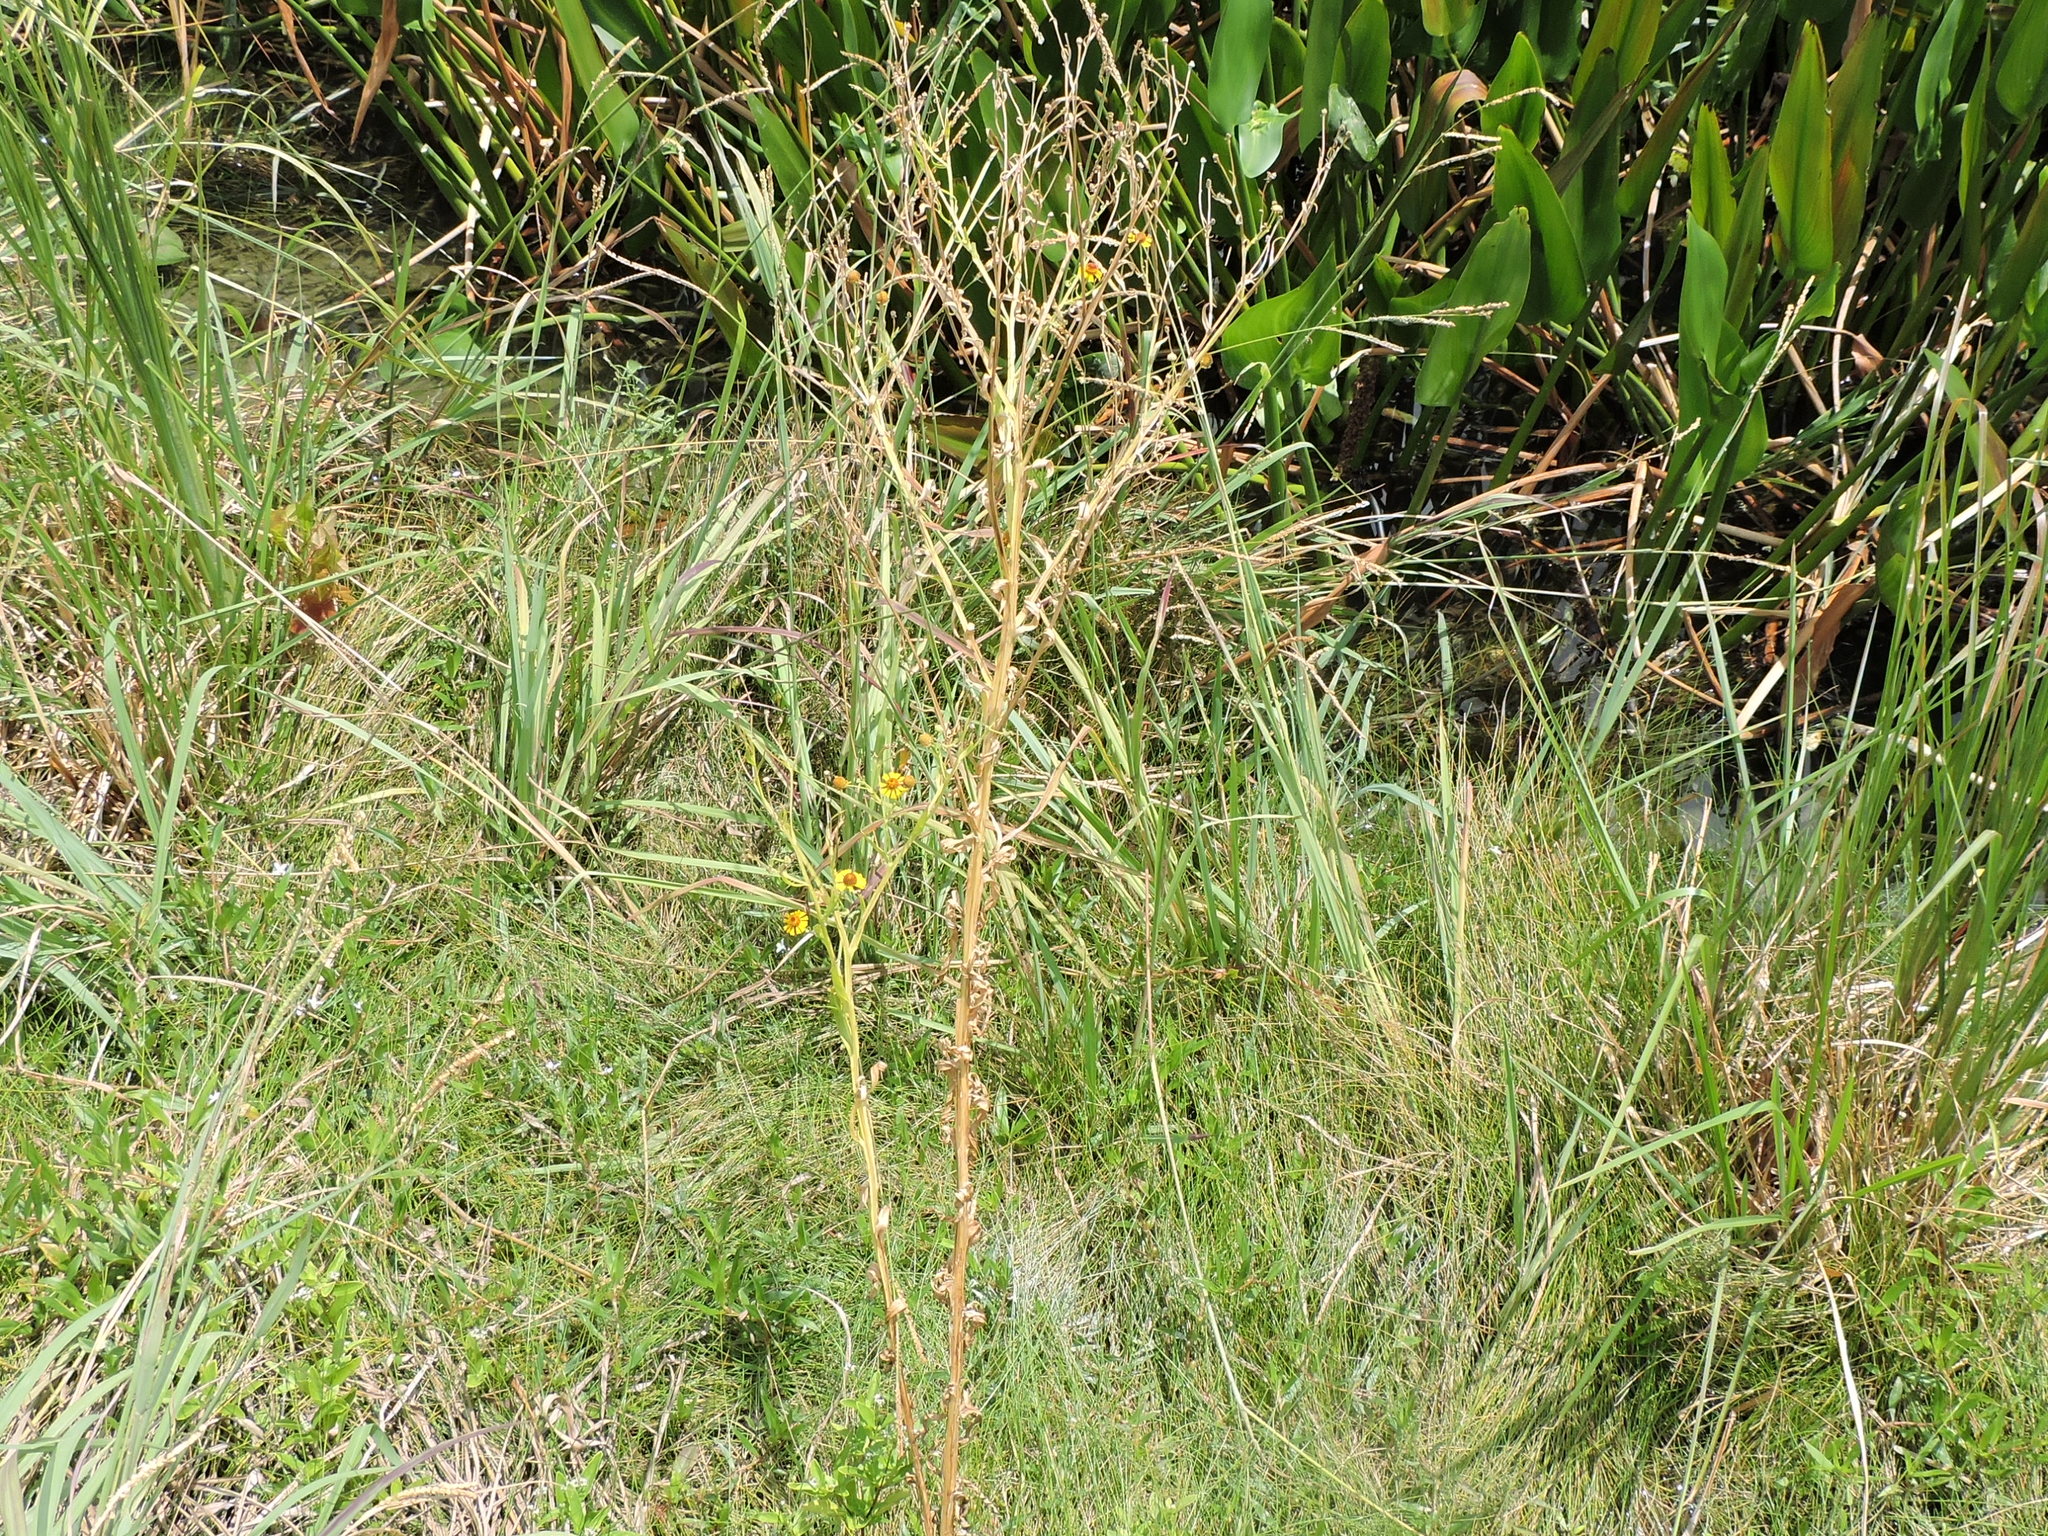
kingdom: Plantae
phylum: Tracheophyta
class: Magnoliopsida
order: Asterales
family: Asteraceae
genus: Helenium
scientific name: Helenium elegans
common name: Pretty sneezeweed
